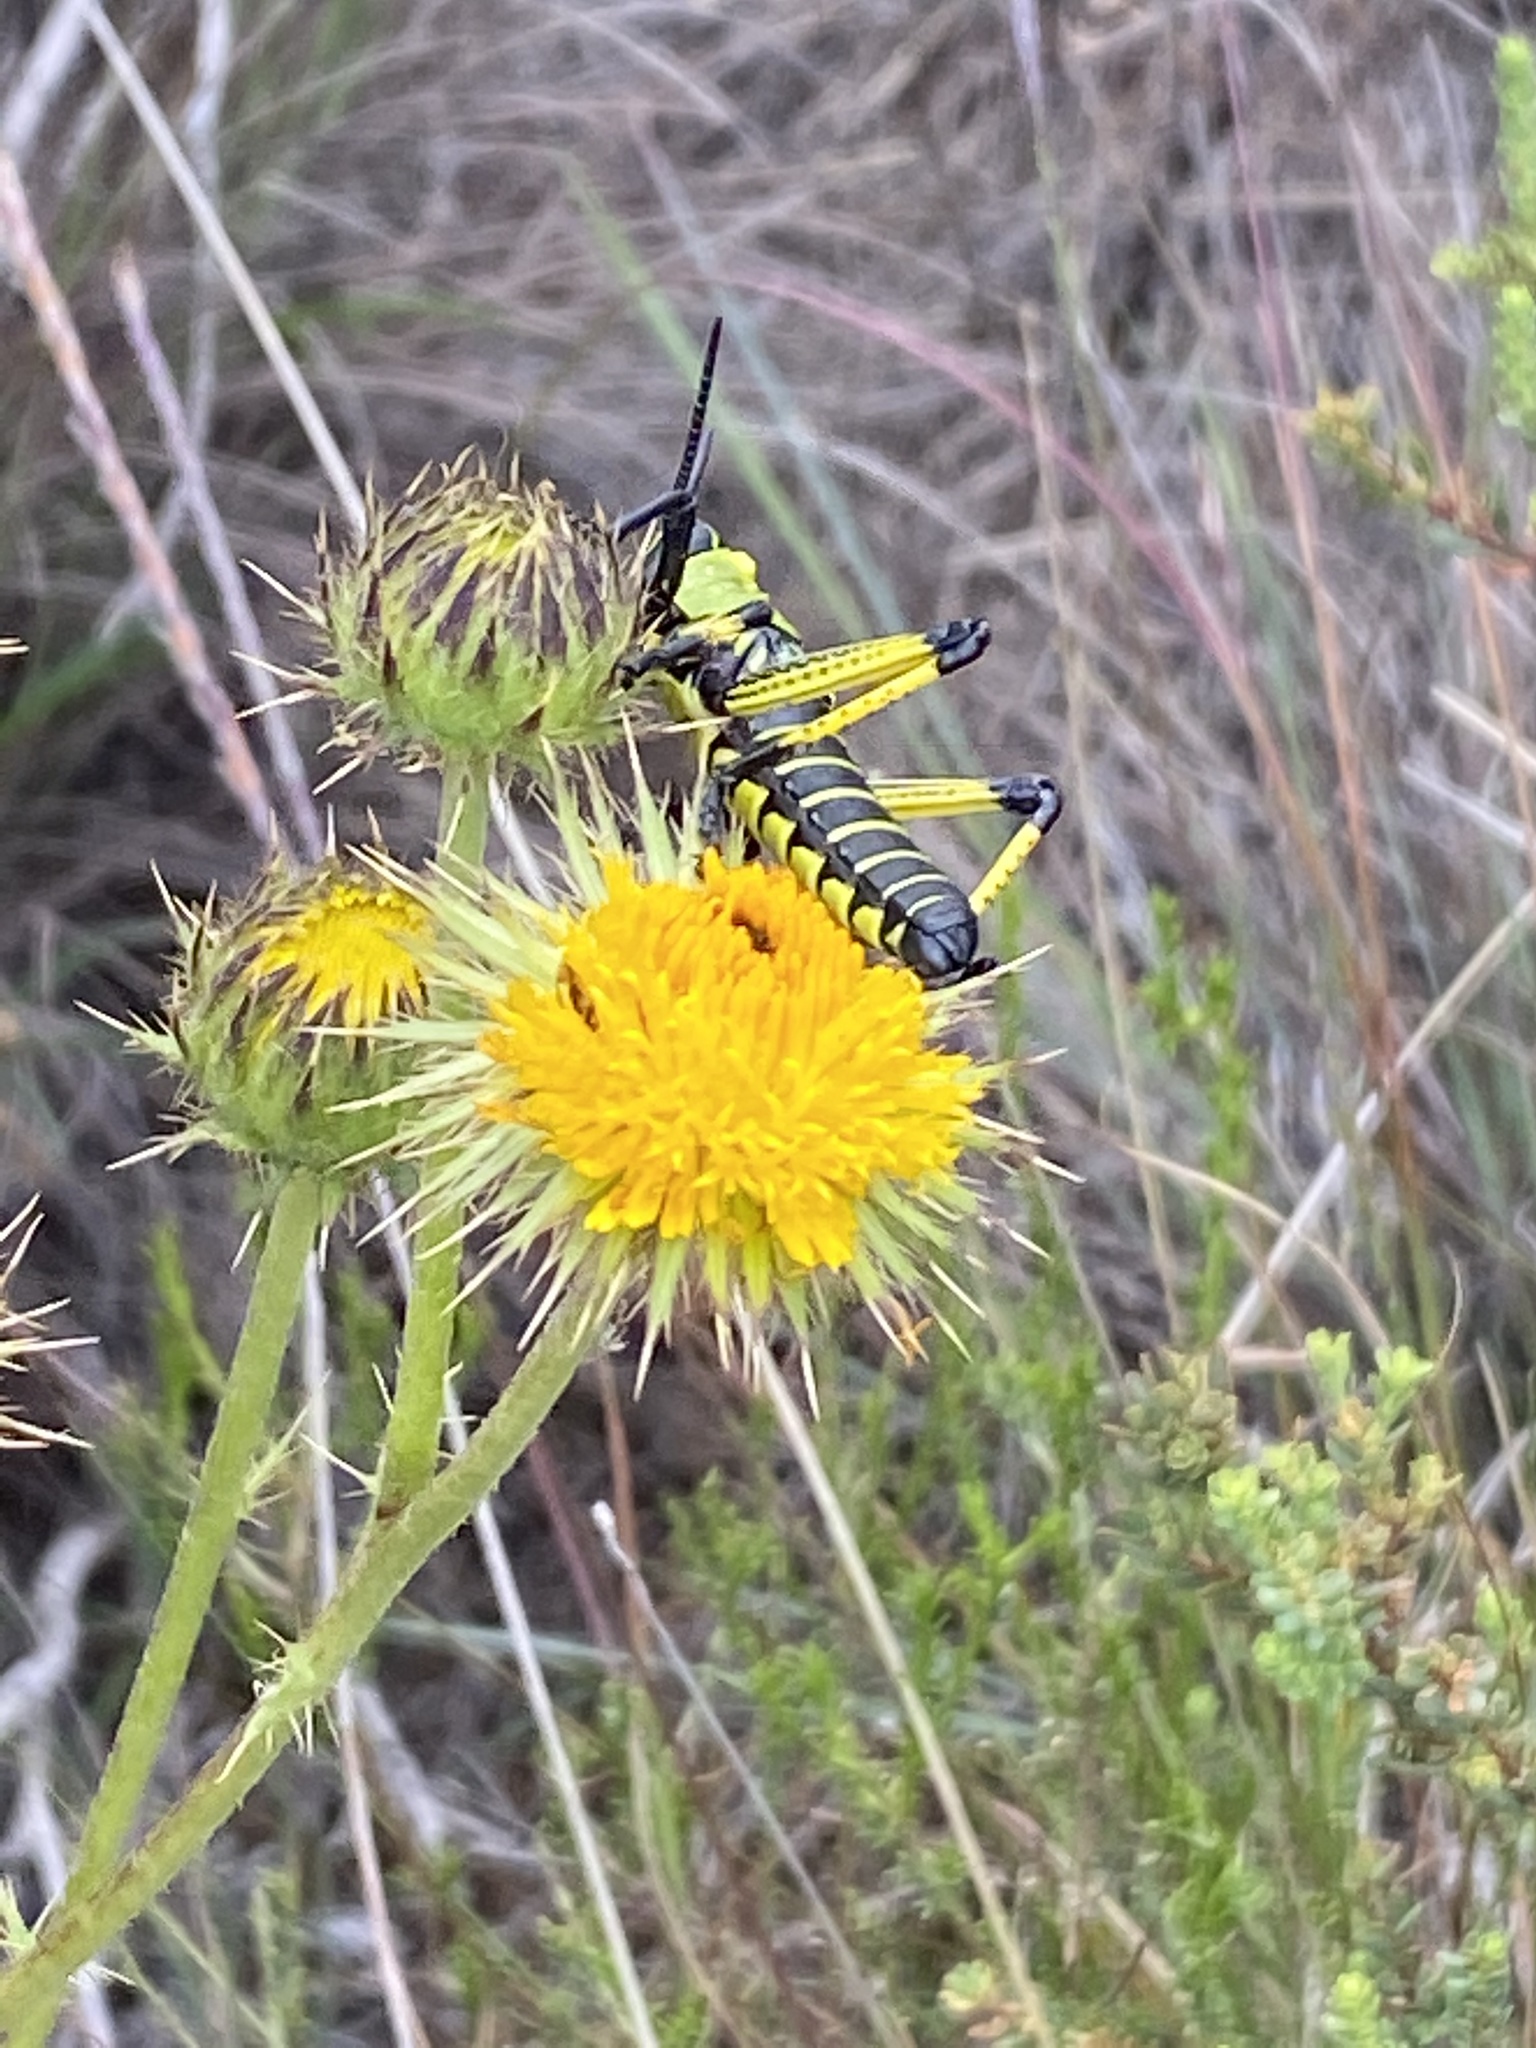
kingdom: Plantae
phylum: Tracheophyta
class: Magnoliopsida
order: Asterales
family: Asteraceae
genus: Berkheya
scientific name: Berkheya discolor
